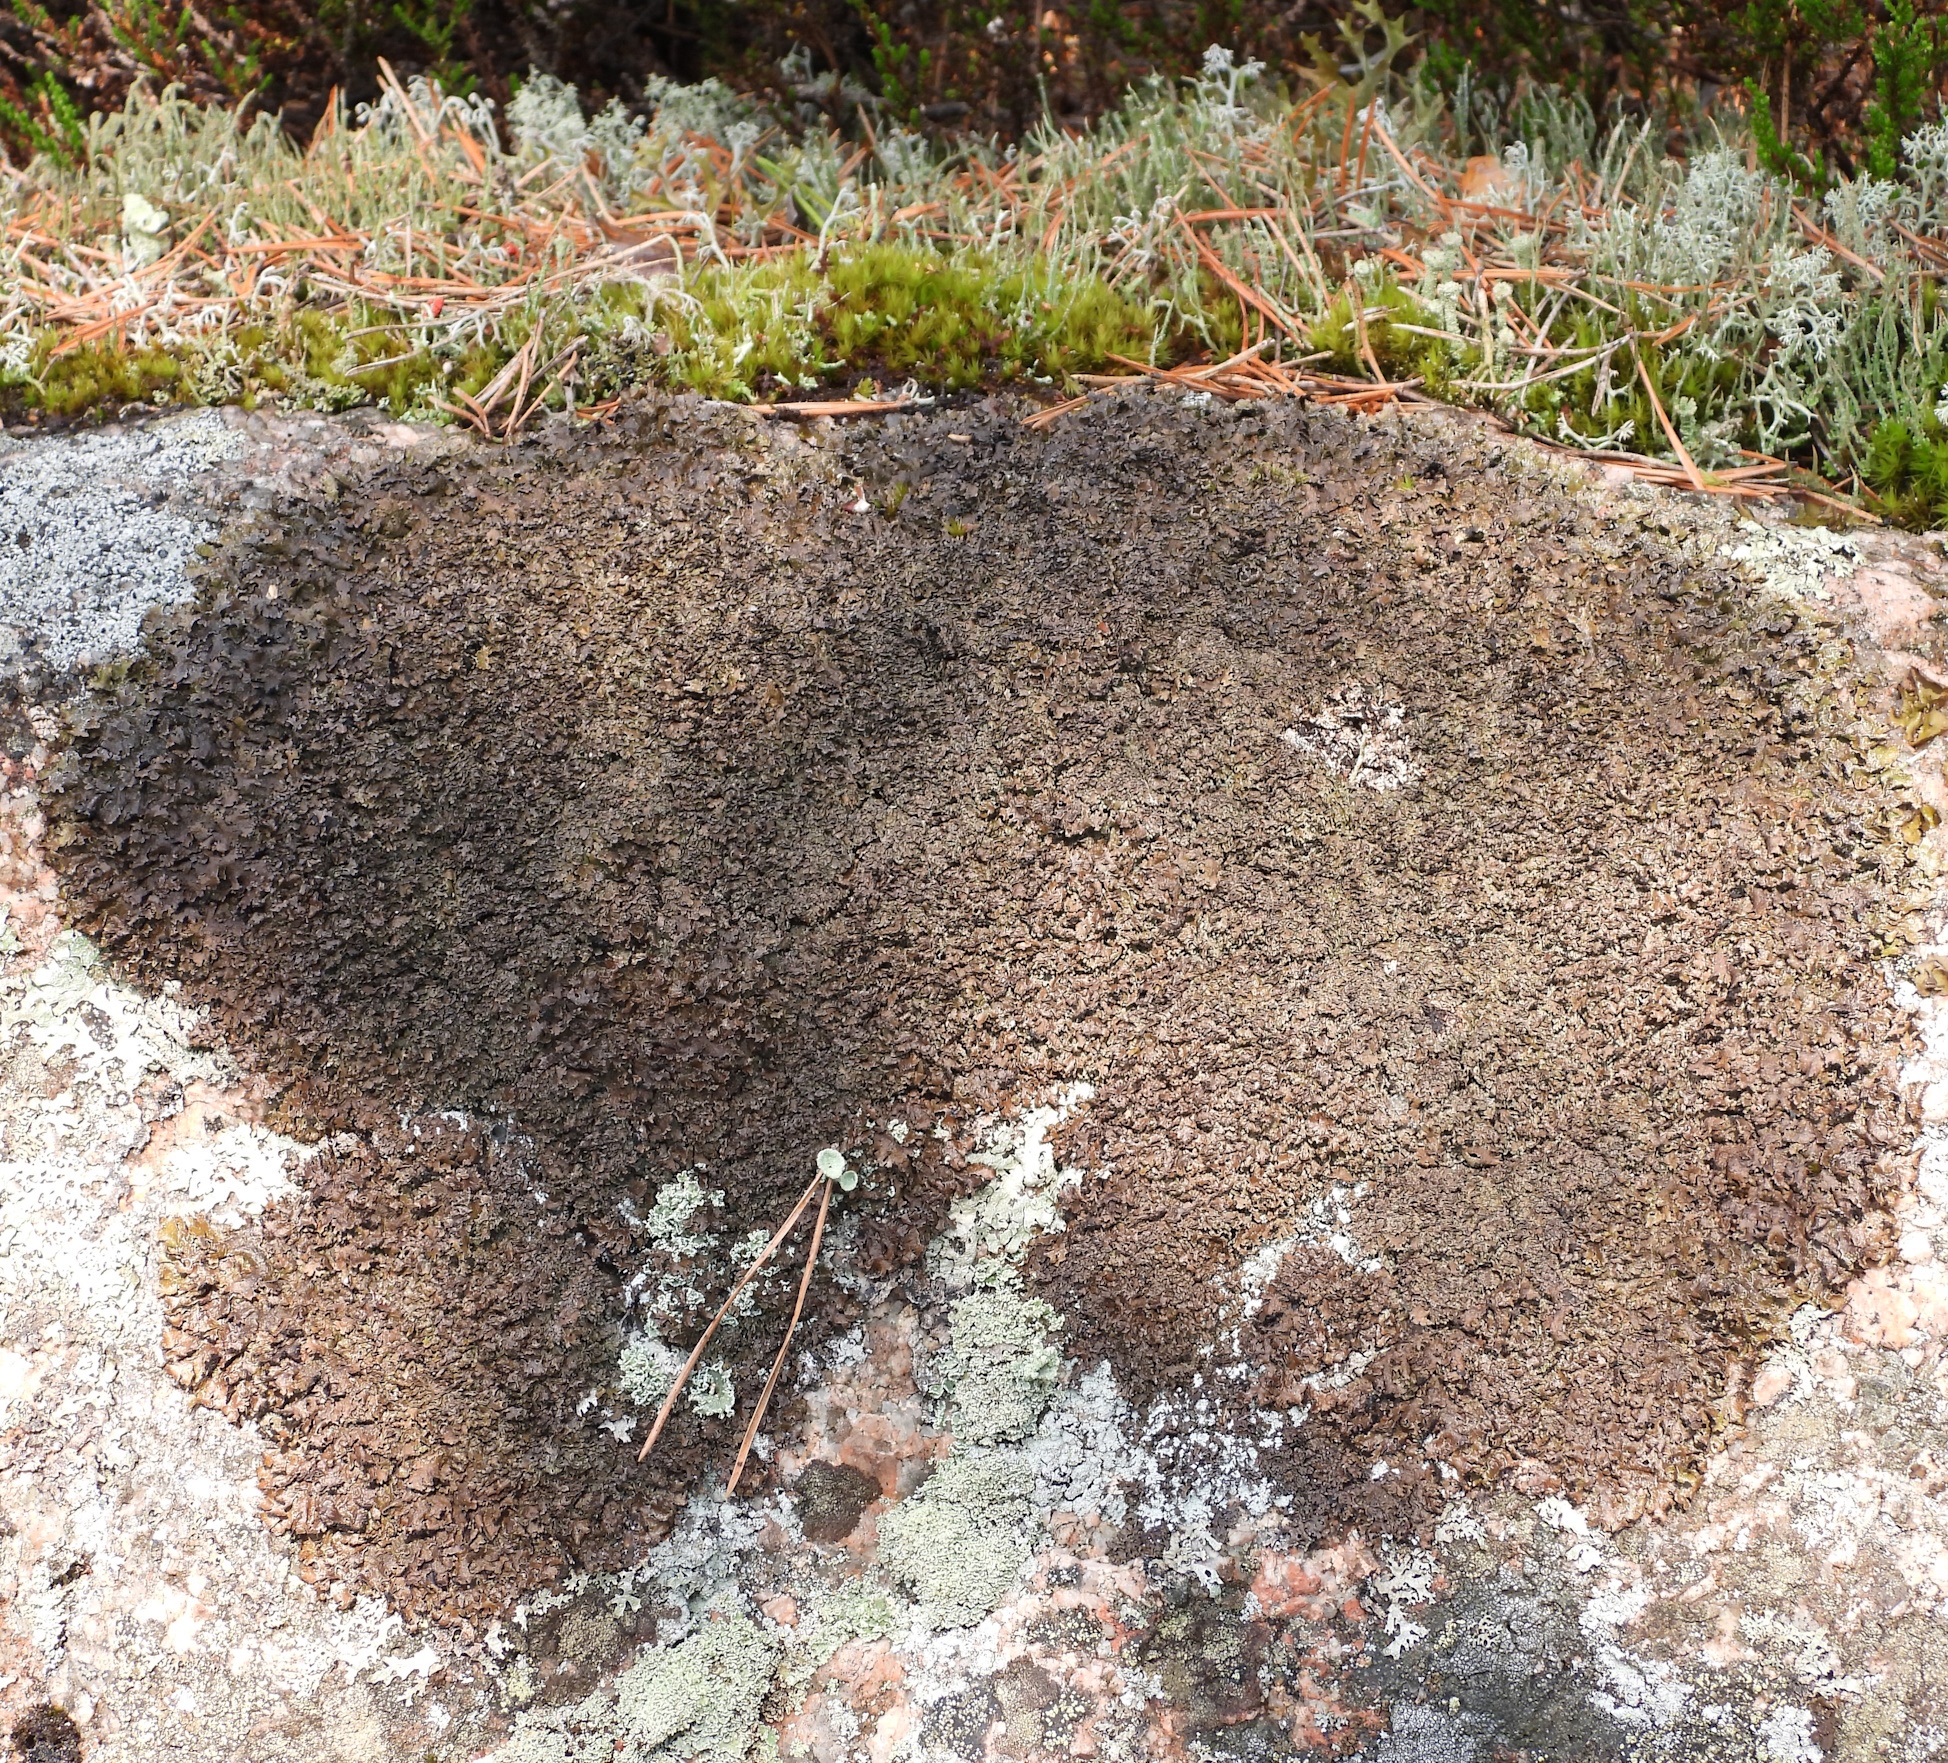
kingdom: Fungi
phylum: Ascomycota
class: Lecanoromycetes
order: Lecanorales
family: Parmeliaceae
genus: Parmelia
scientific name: Parmelia omphalodes
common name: Smoky crottle
